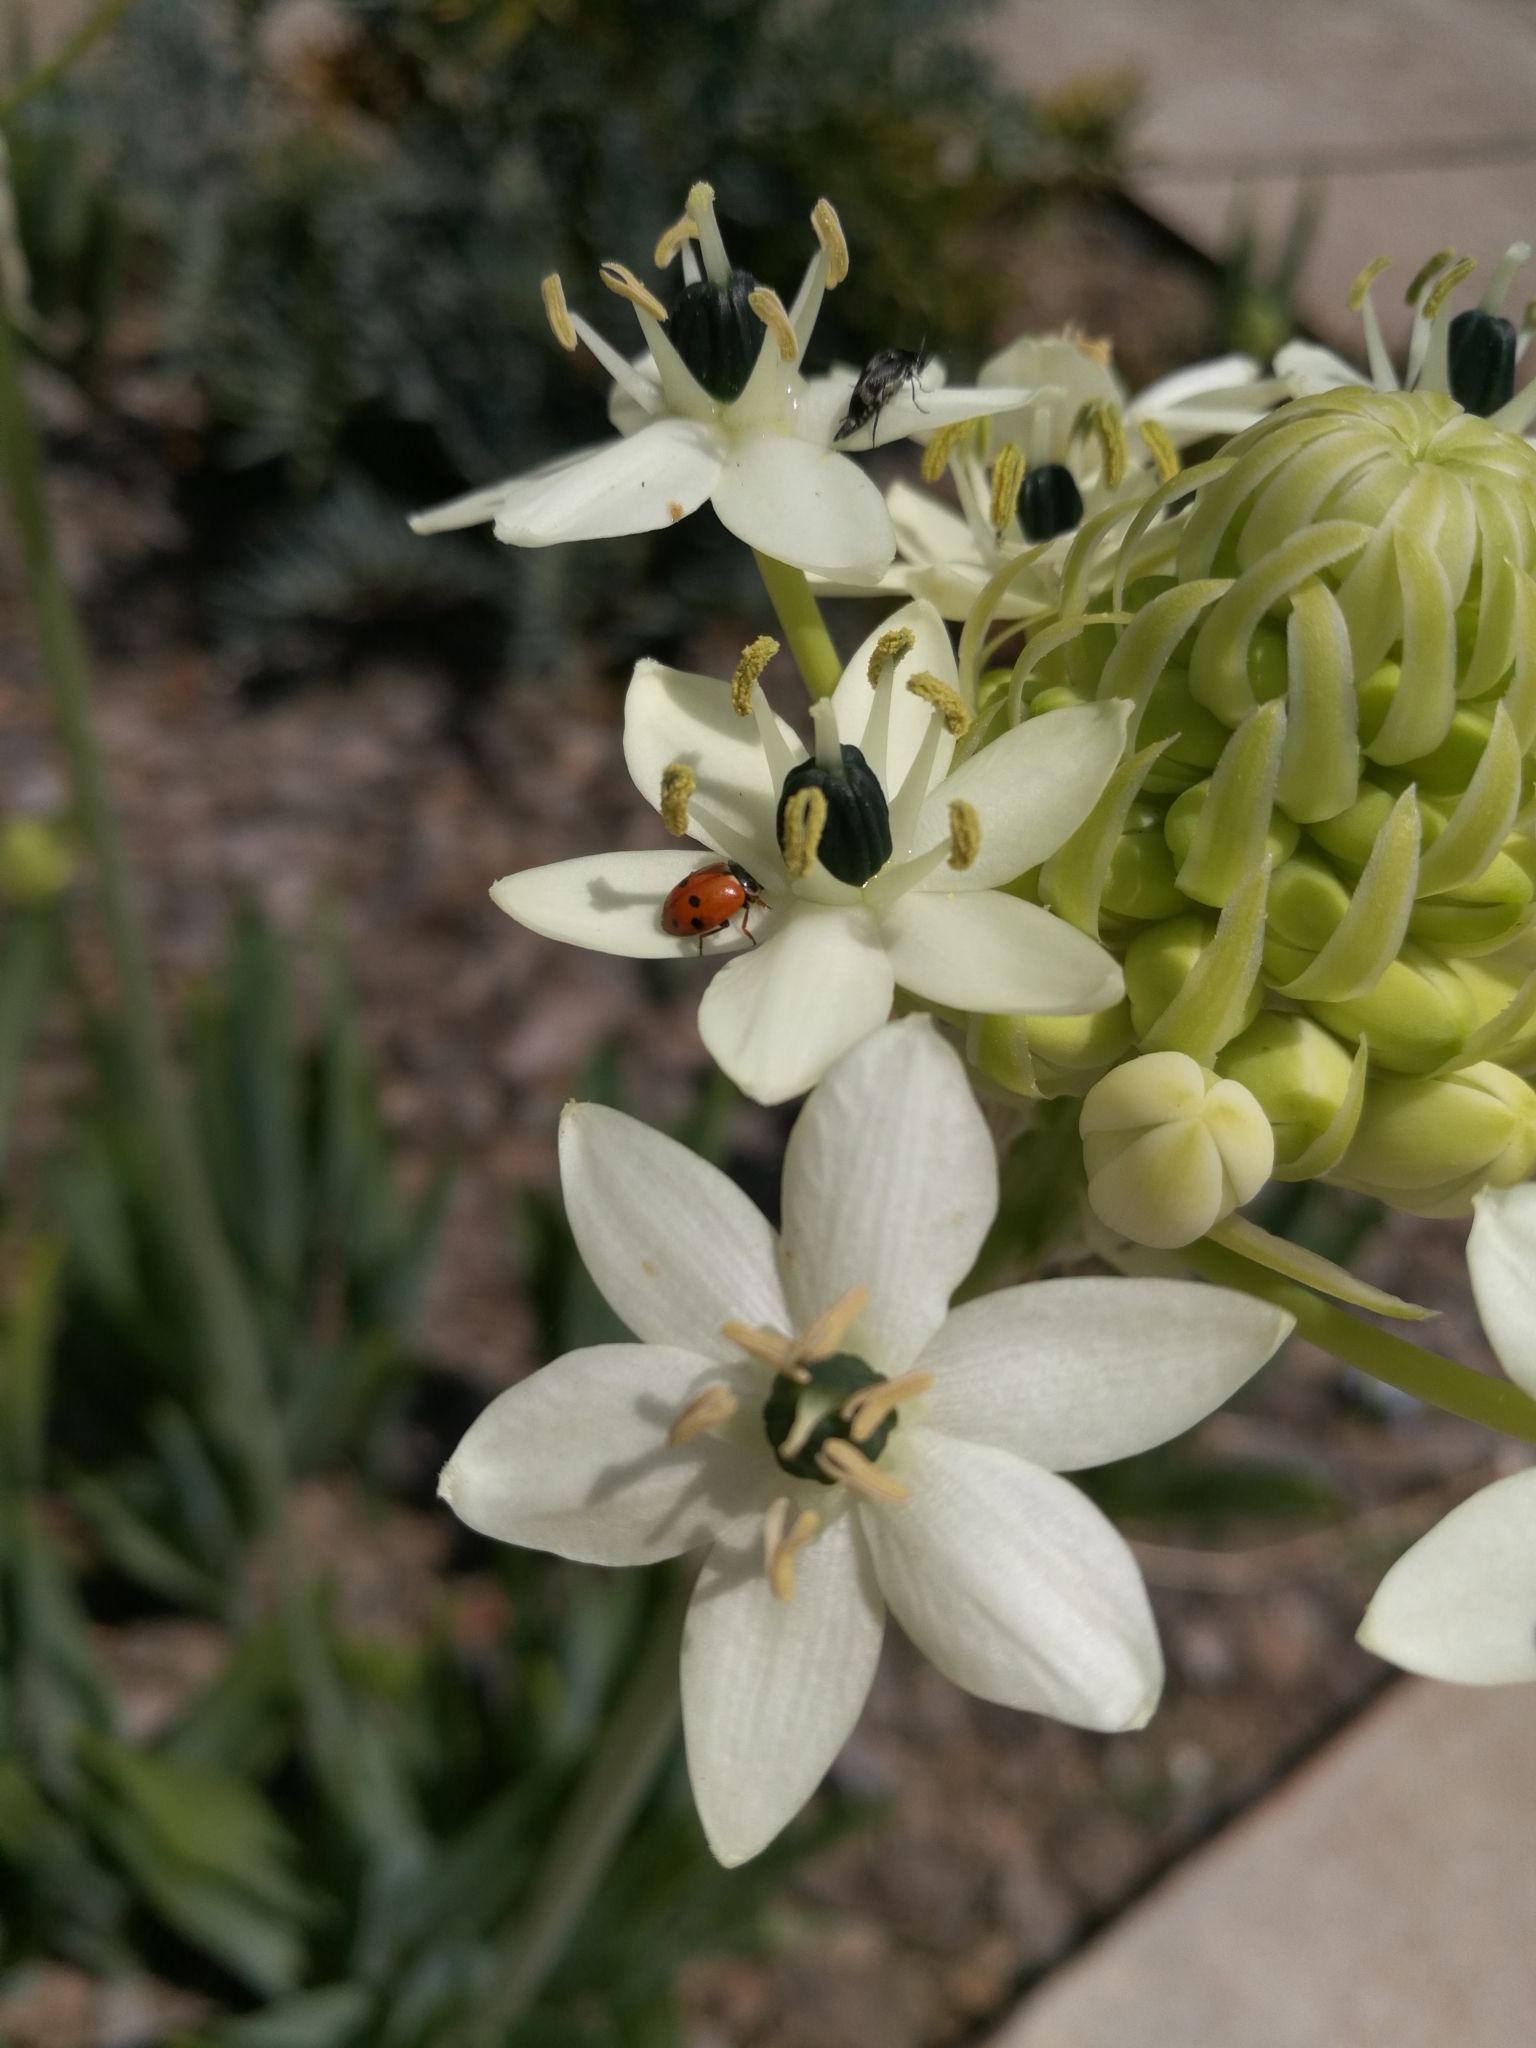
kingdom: Animalia
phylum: Arthropoda
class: Insecta
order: Coleoptera
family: Coccinellidae
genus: Hippodamia
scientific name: Hippodamia variegata
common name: Ladybird beetle
